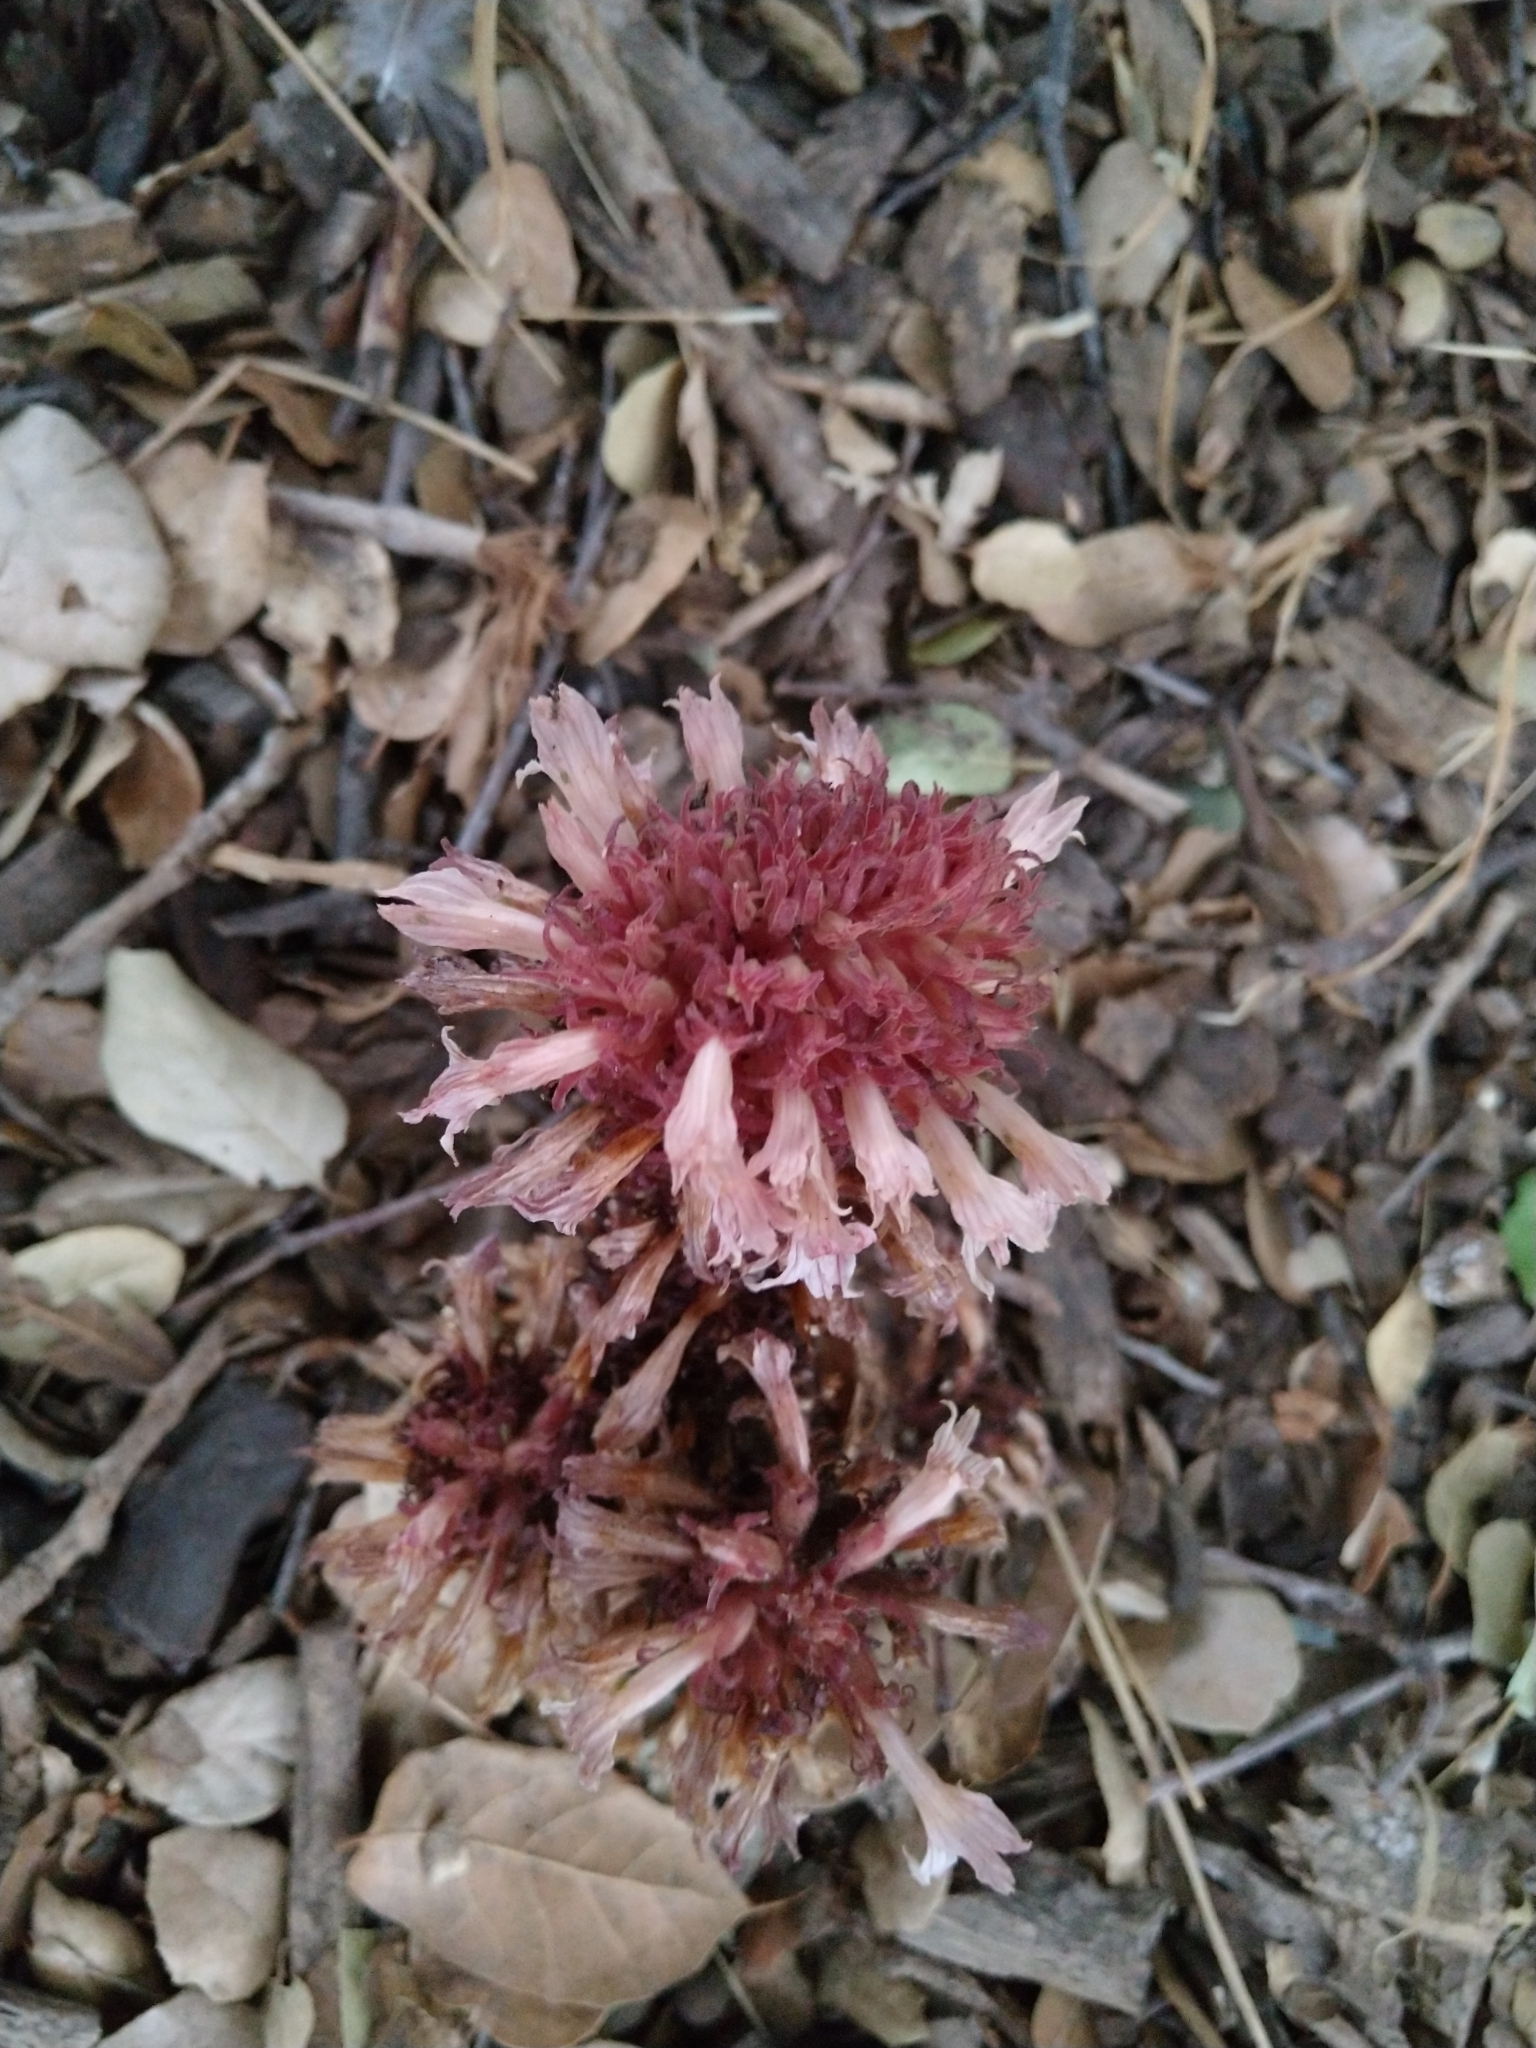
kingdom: Plantae
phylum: Tracheophyta
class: Magnoliopsida
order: Lamiales
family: Orobanchaceae
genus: Aphyllon
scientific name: Aphyllon vallicolum
